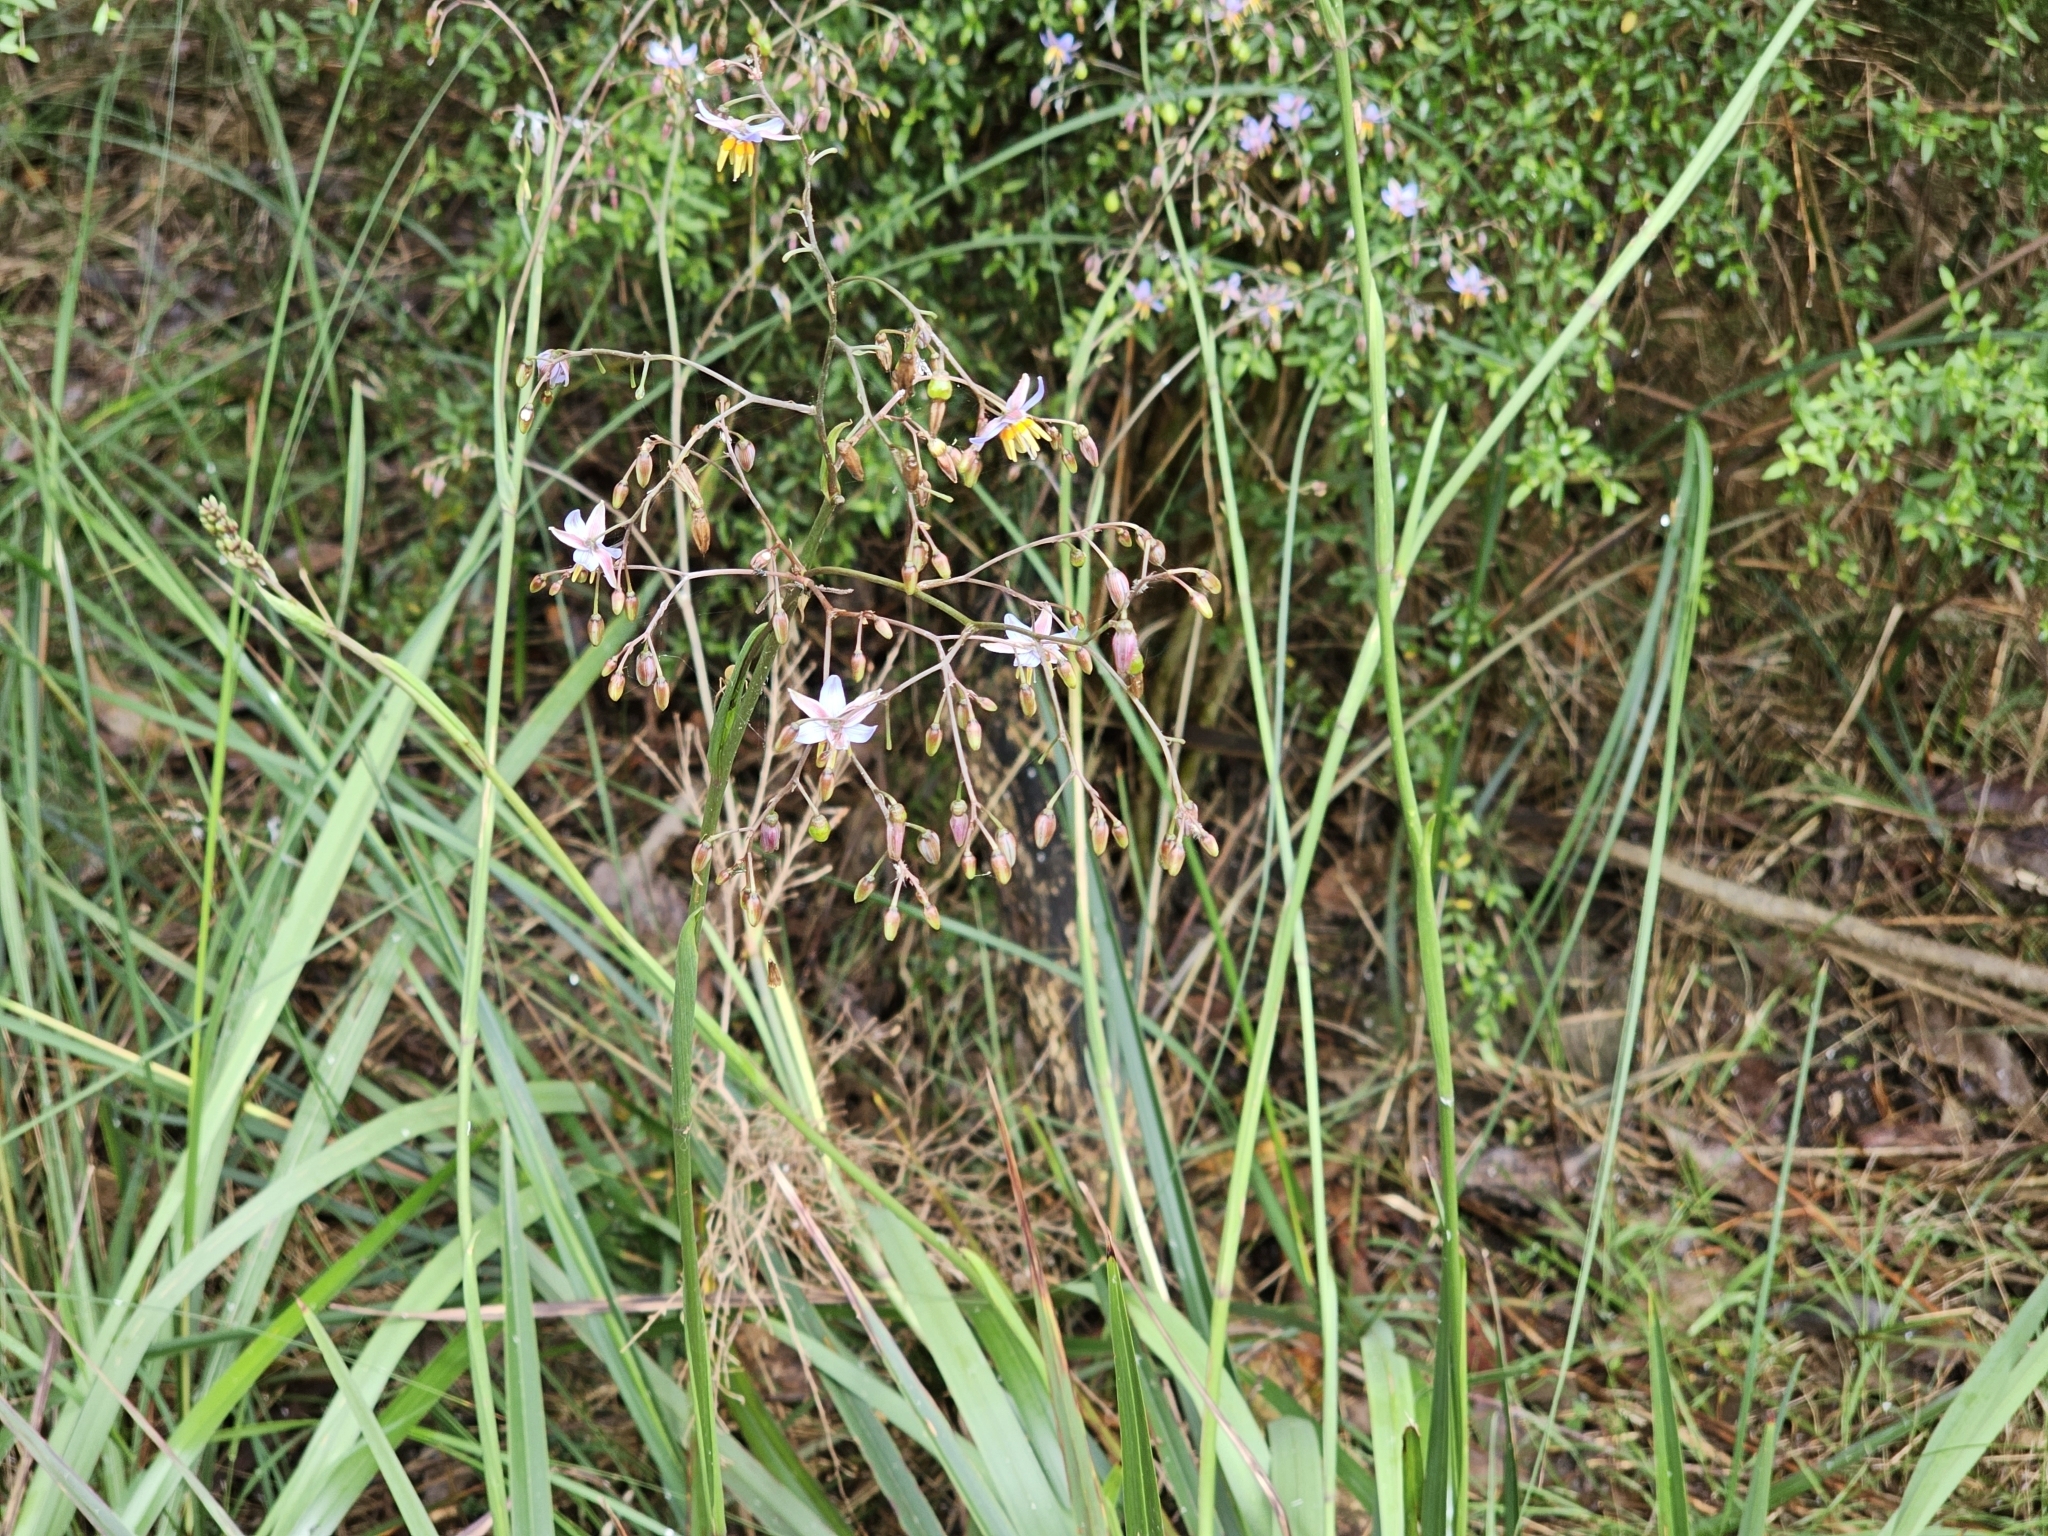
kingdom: Plantae
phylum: Tracheophyta
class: Liliopsida
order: Asparagales
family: Asphodelaceae
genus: Dianella
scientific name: Dianella longifolia
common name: Blue flax-lily
